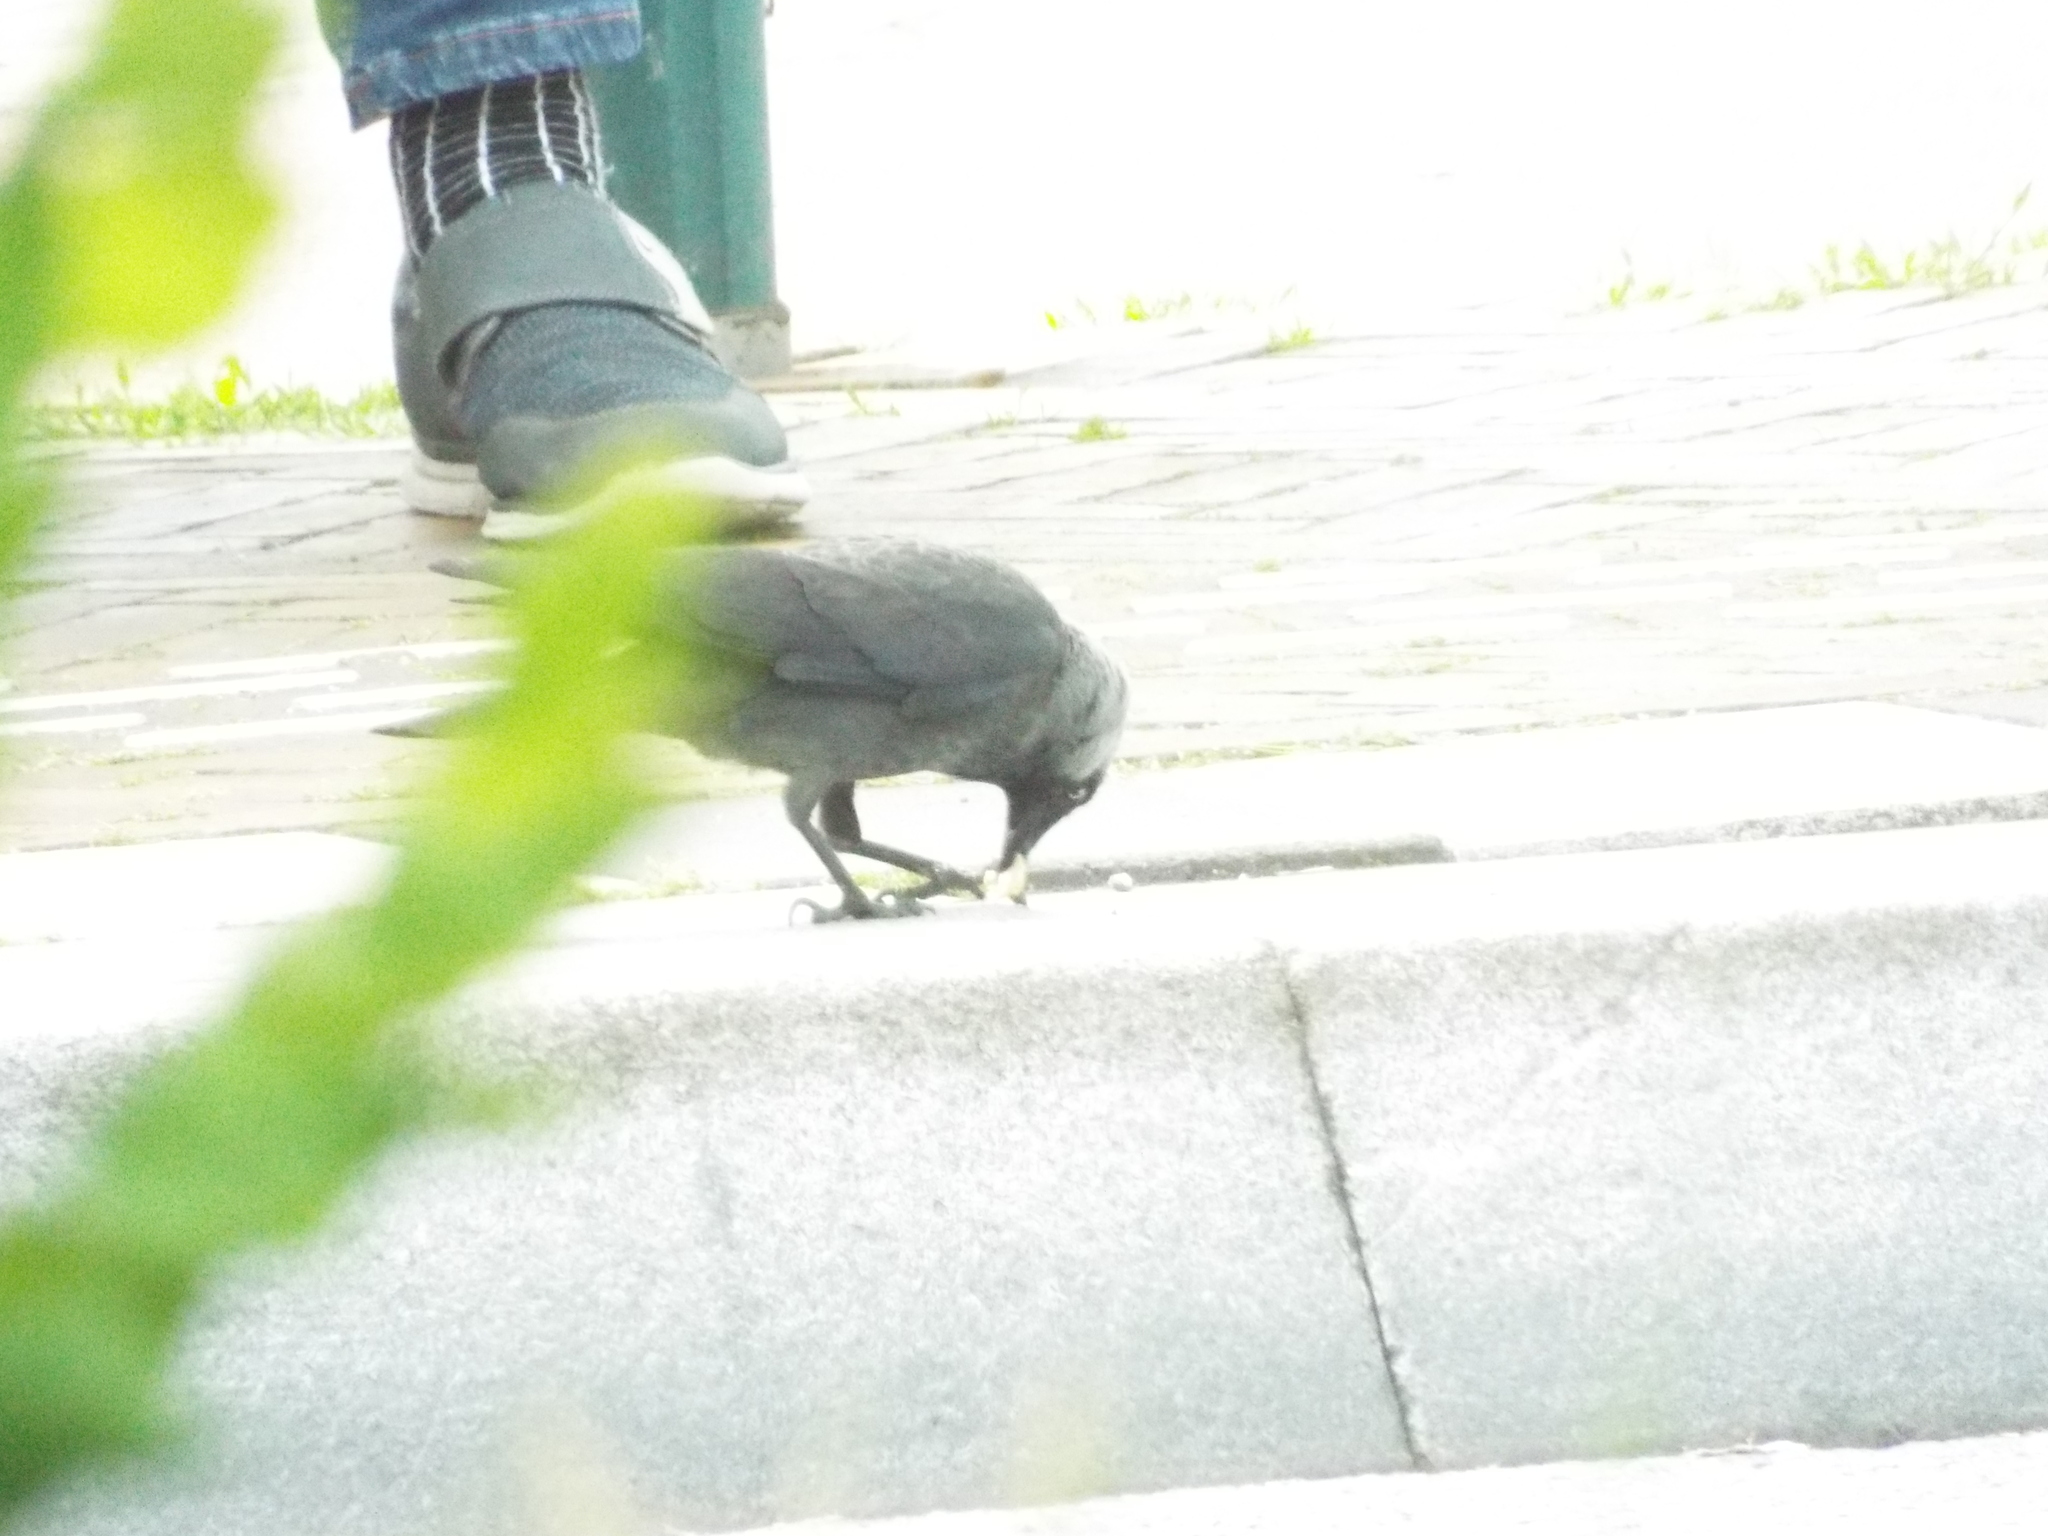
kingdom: Animalia
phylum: Chordata
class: Aves
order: Passeriformes
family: Corvidae
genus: Coloeus
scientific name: Coloeus monedula
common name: Western jackdaw
